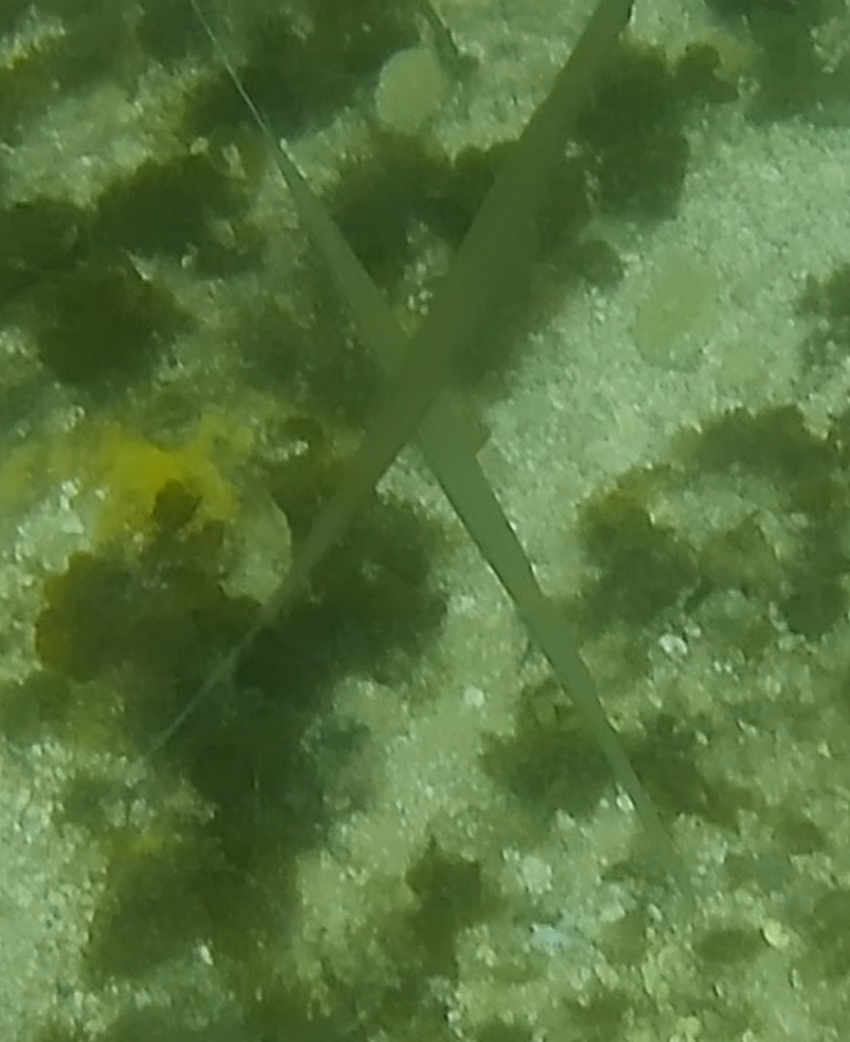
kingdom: Animalia
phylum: Chordata
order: Syngnathiformes
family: Fistulariidae
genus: Fistularia
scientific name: Fistularia commersonii
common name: Bluespotted cornetfish
